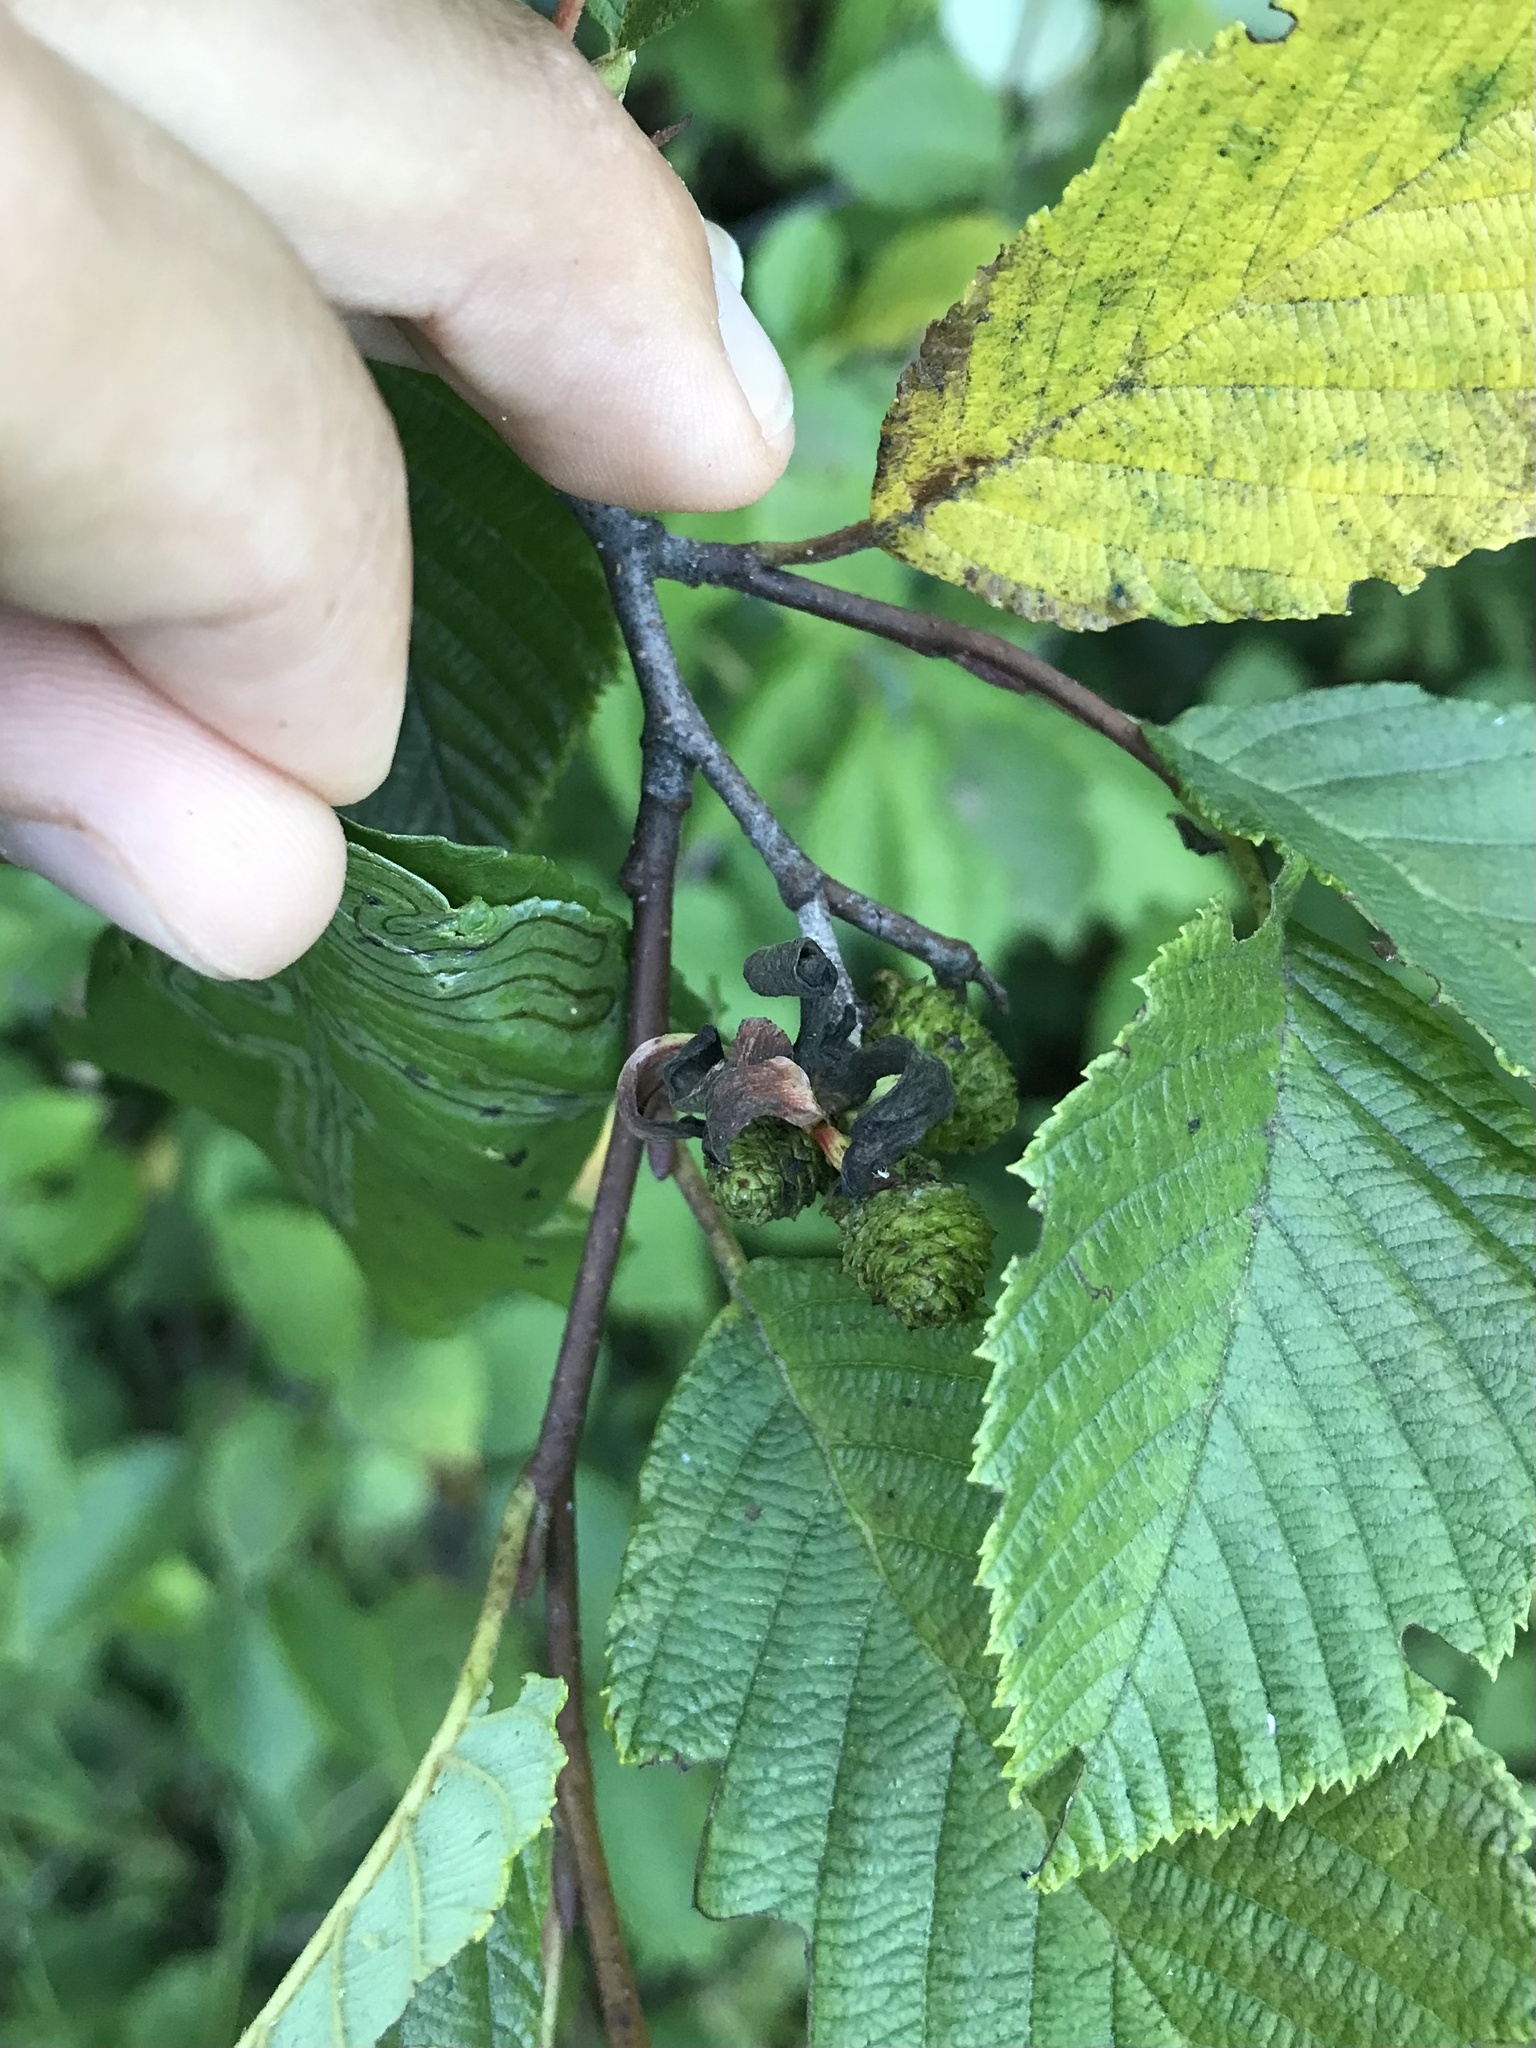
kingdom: Fungi
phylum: Ascomycota
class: Taphrinomycetes
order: Taphrinales
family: Taphrinaceae
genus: Taphrina
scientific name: Taphrina robinsoniana
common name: Eastern american alder tongue gall fungus
